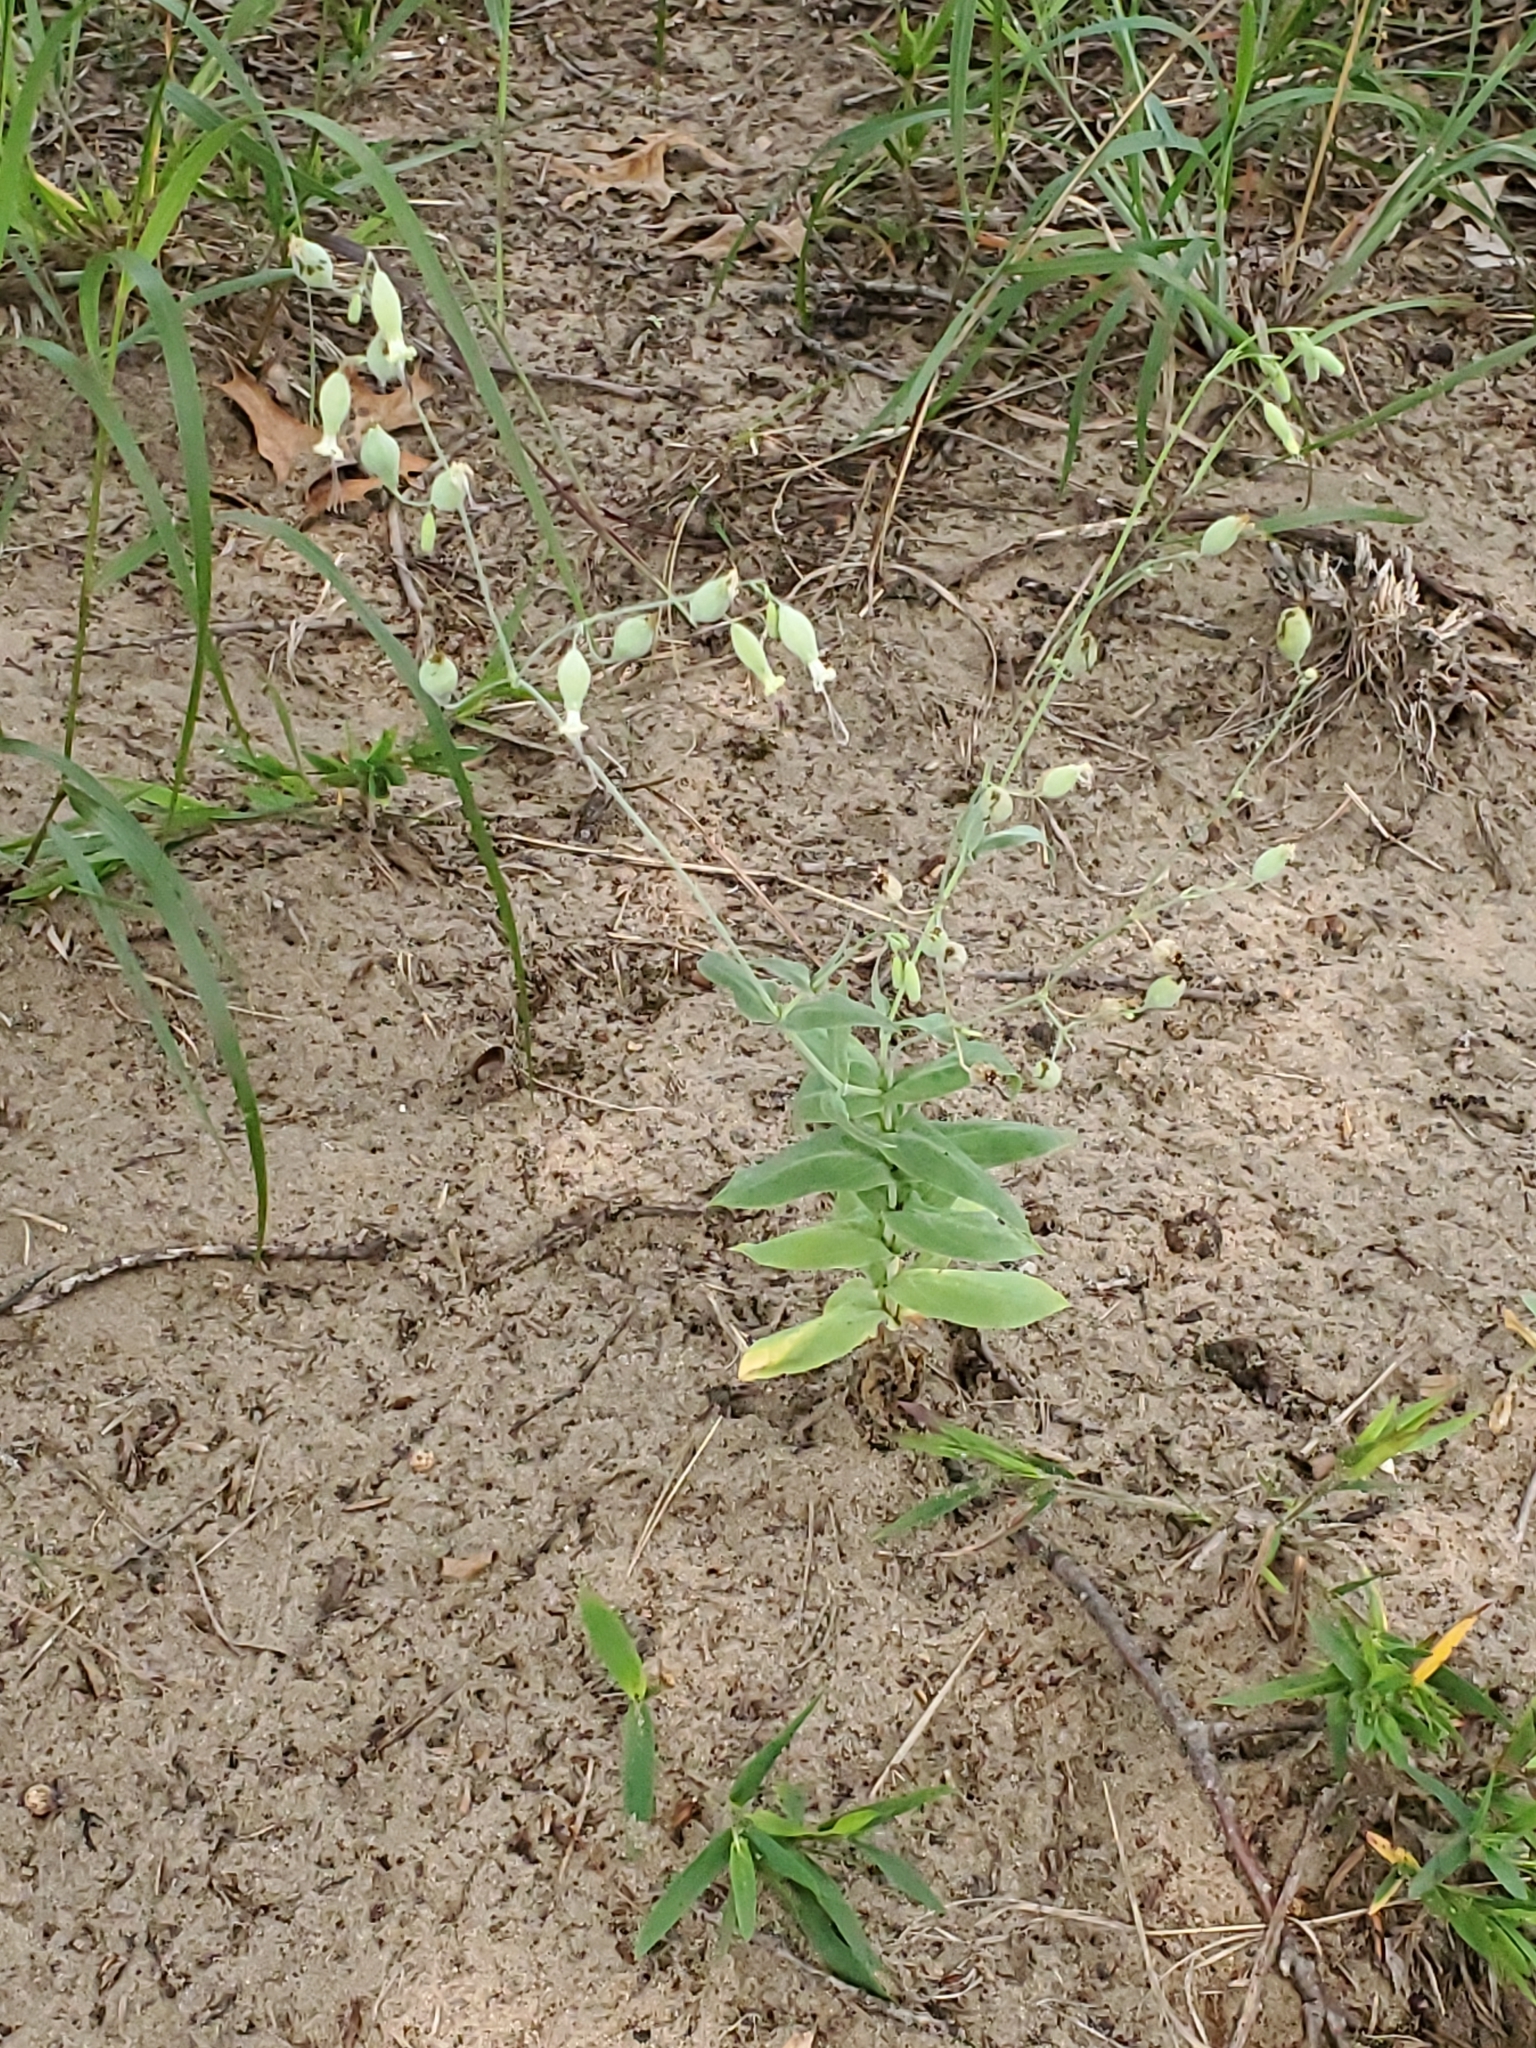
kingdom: Plantae
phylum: Tracheophyta
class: Magnoliopsida
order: Caryophyllales
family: Caryophyllaceae
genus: Silene
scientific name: Silene csereii
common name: Balkan catchfly
